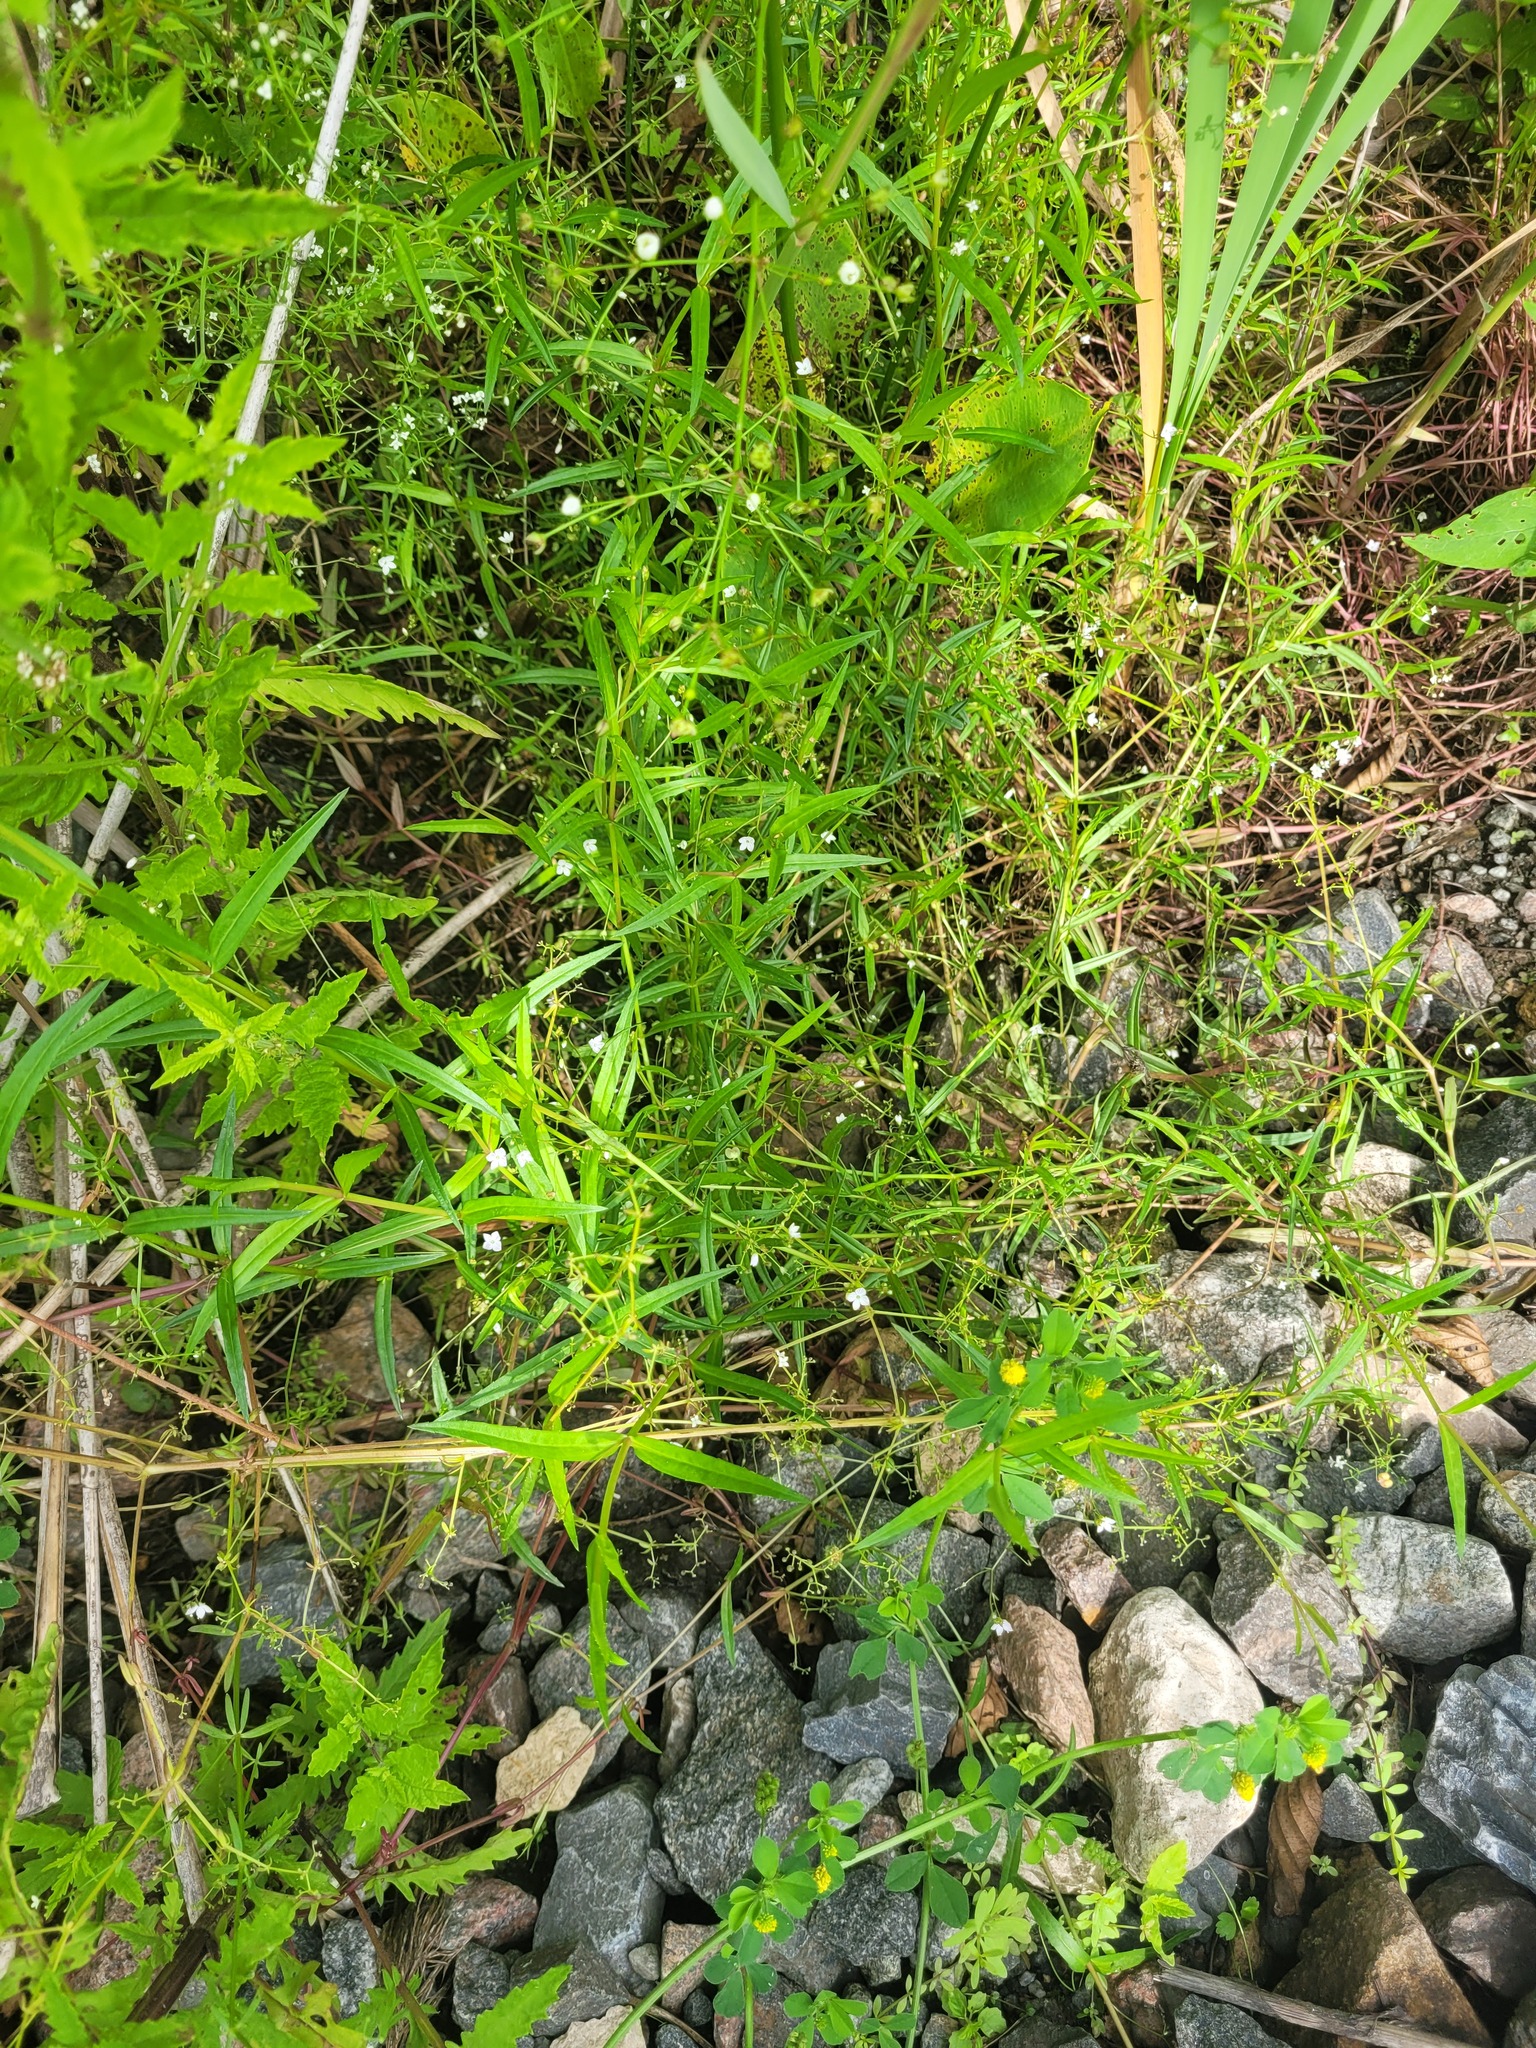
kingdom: Plantae
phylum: Tracheophyta
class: Magnoliopsida
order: Lamiales
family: Plantaginaceae
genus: Veronica
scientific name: Veronica scutellata
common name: Marsh speedwell
